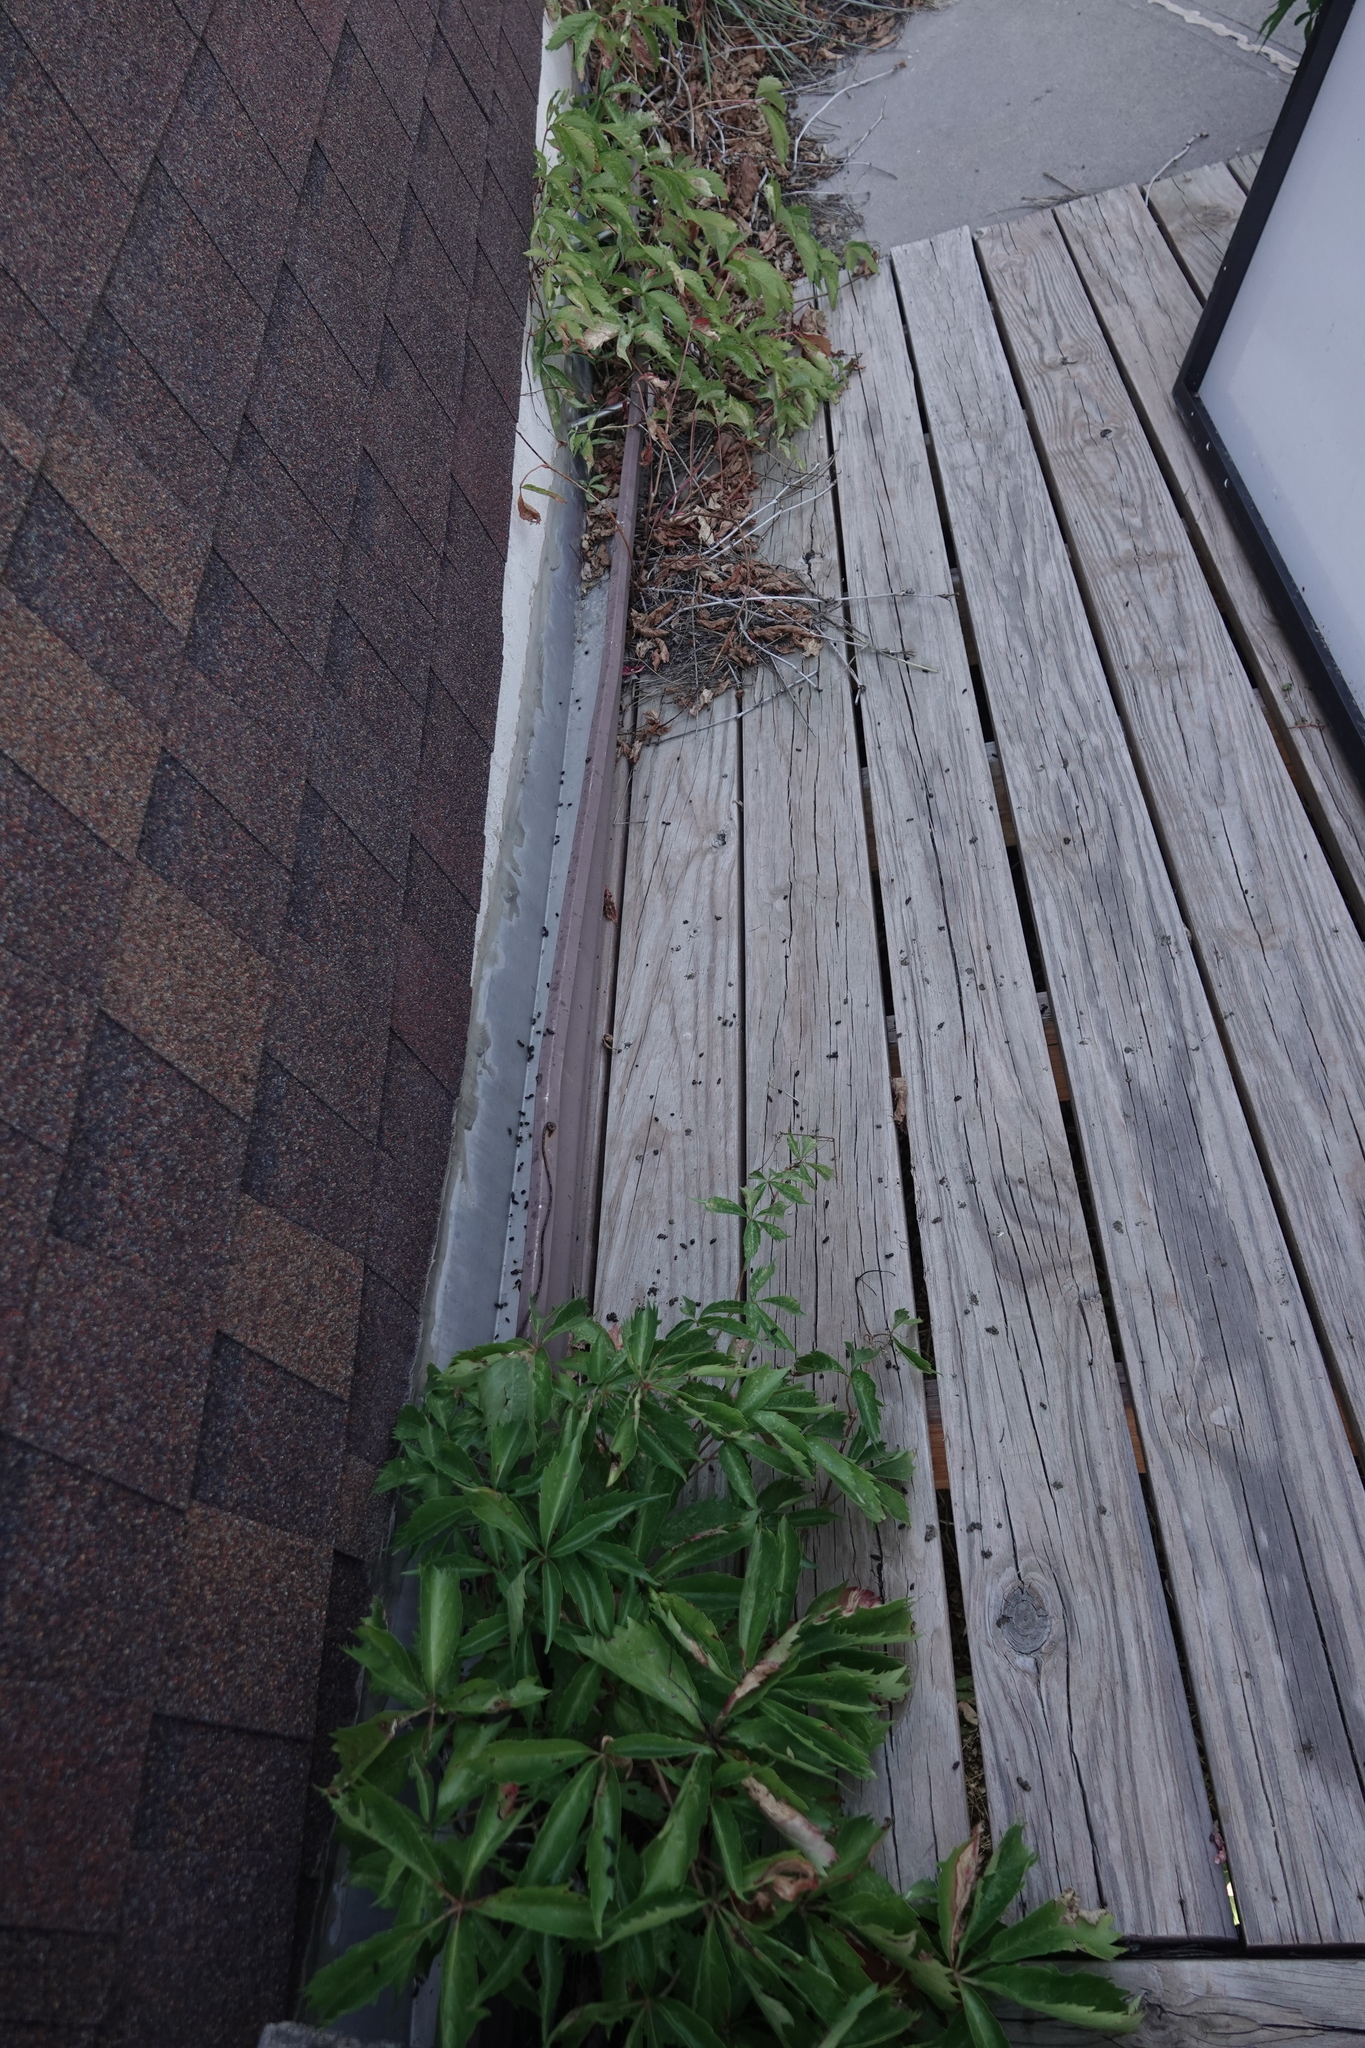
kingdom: Animalia
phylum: Chordata
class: Mammalia
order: Chiroptera
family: Vespertilionidae
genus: Eptesicus
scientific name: Eptesicus fuscus
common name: Big brown bat
